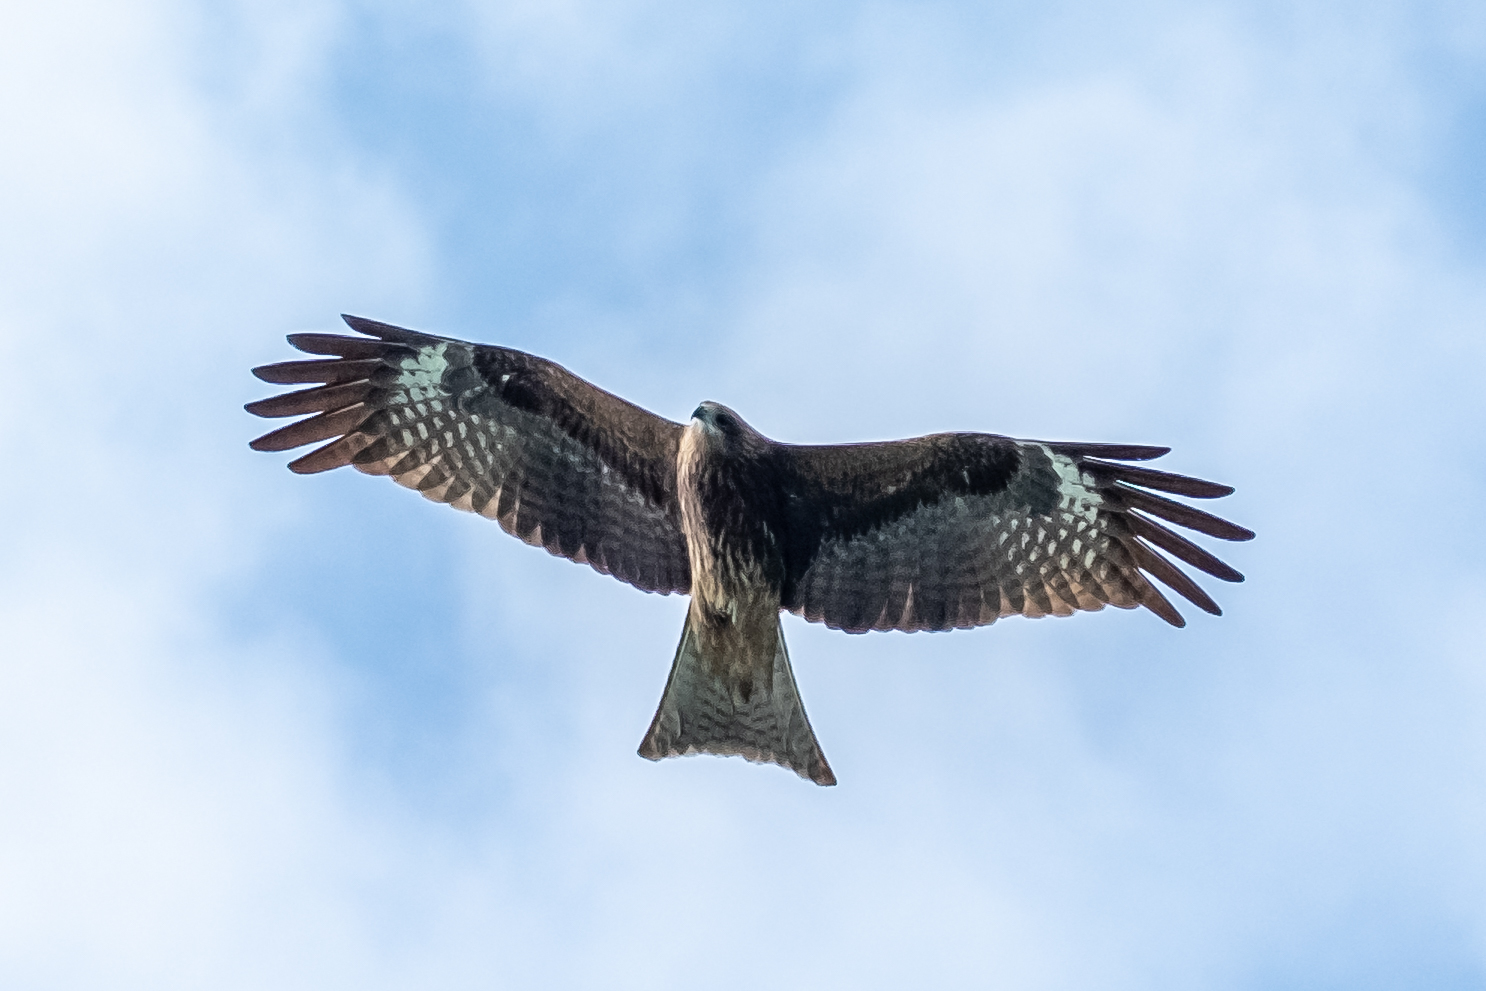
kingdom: Animalia
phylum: Chordata
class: Aves
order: Accipitriformes
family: Accipitridae
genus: Milvus
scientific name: Milvus migrans
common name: Black kite
